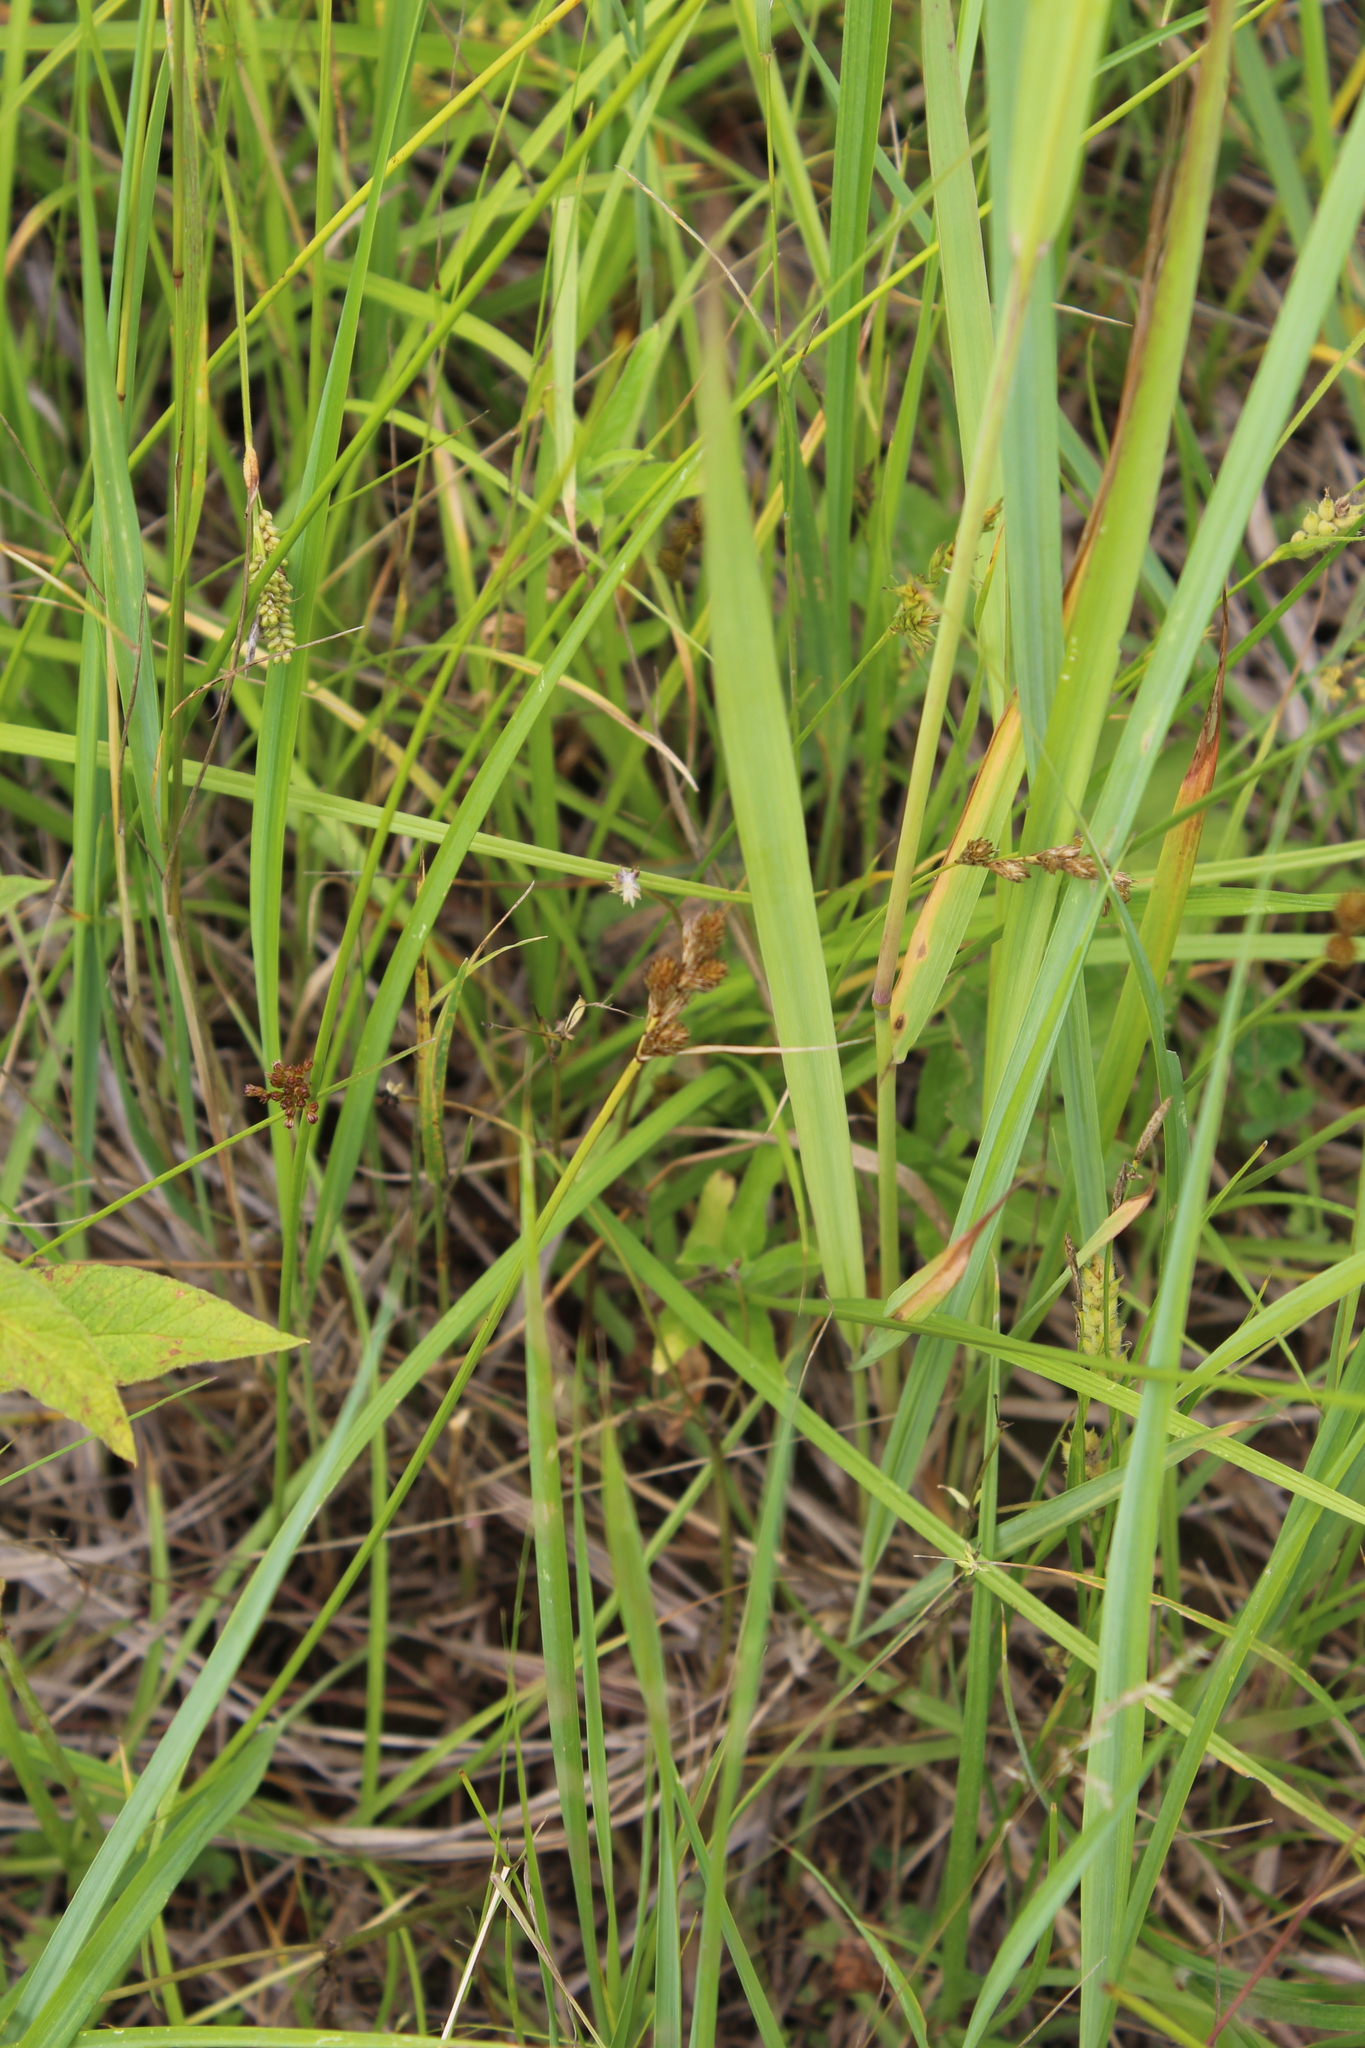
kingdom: Plantae
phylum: Tracheophyta
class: Liliopsida
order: Poales
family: Cyperaceae
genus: Carex
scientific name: Carex leporina
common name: Oval sedge
